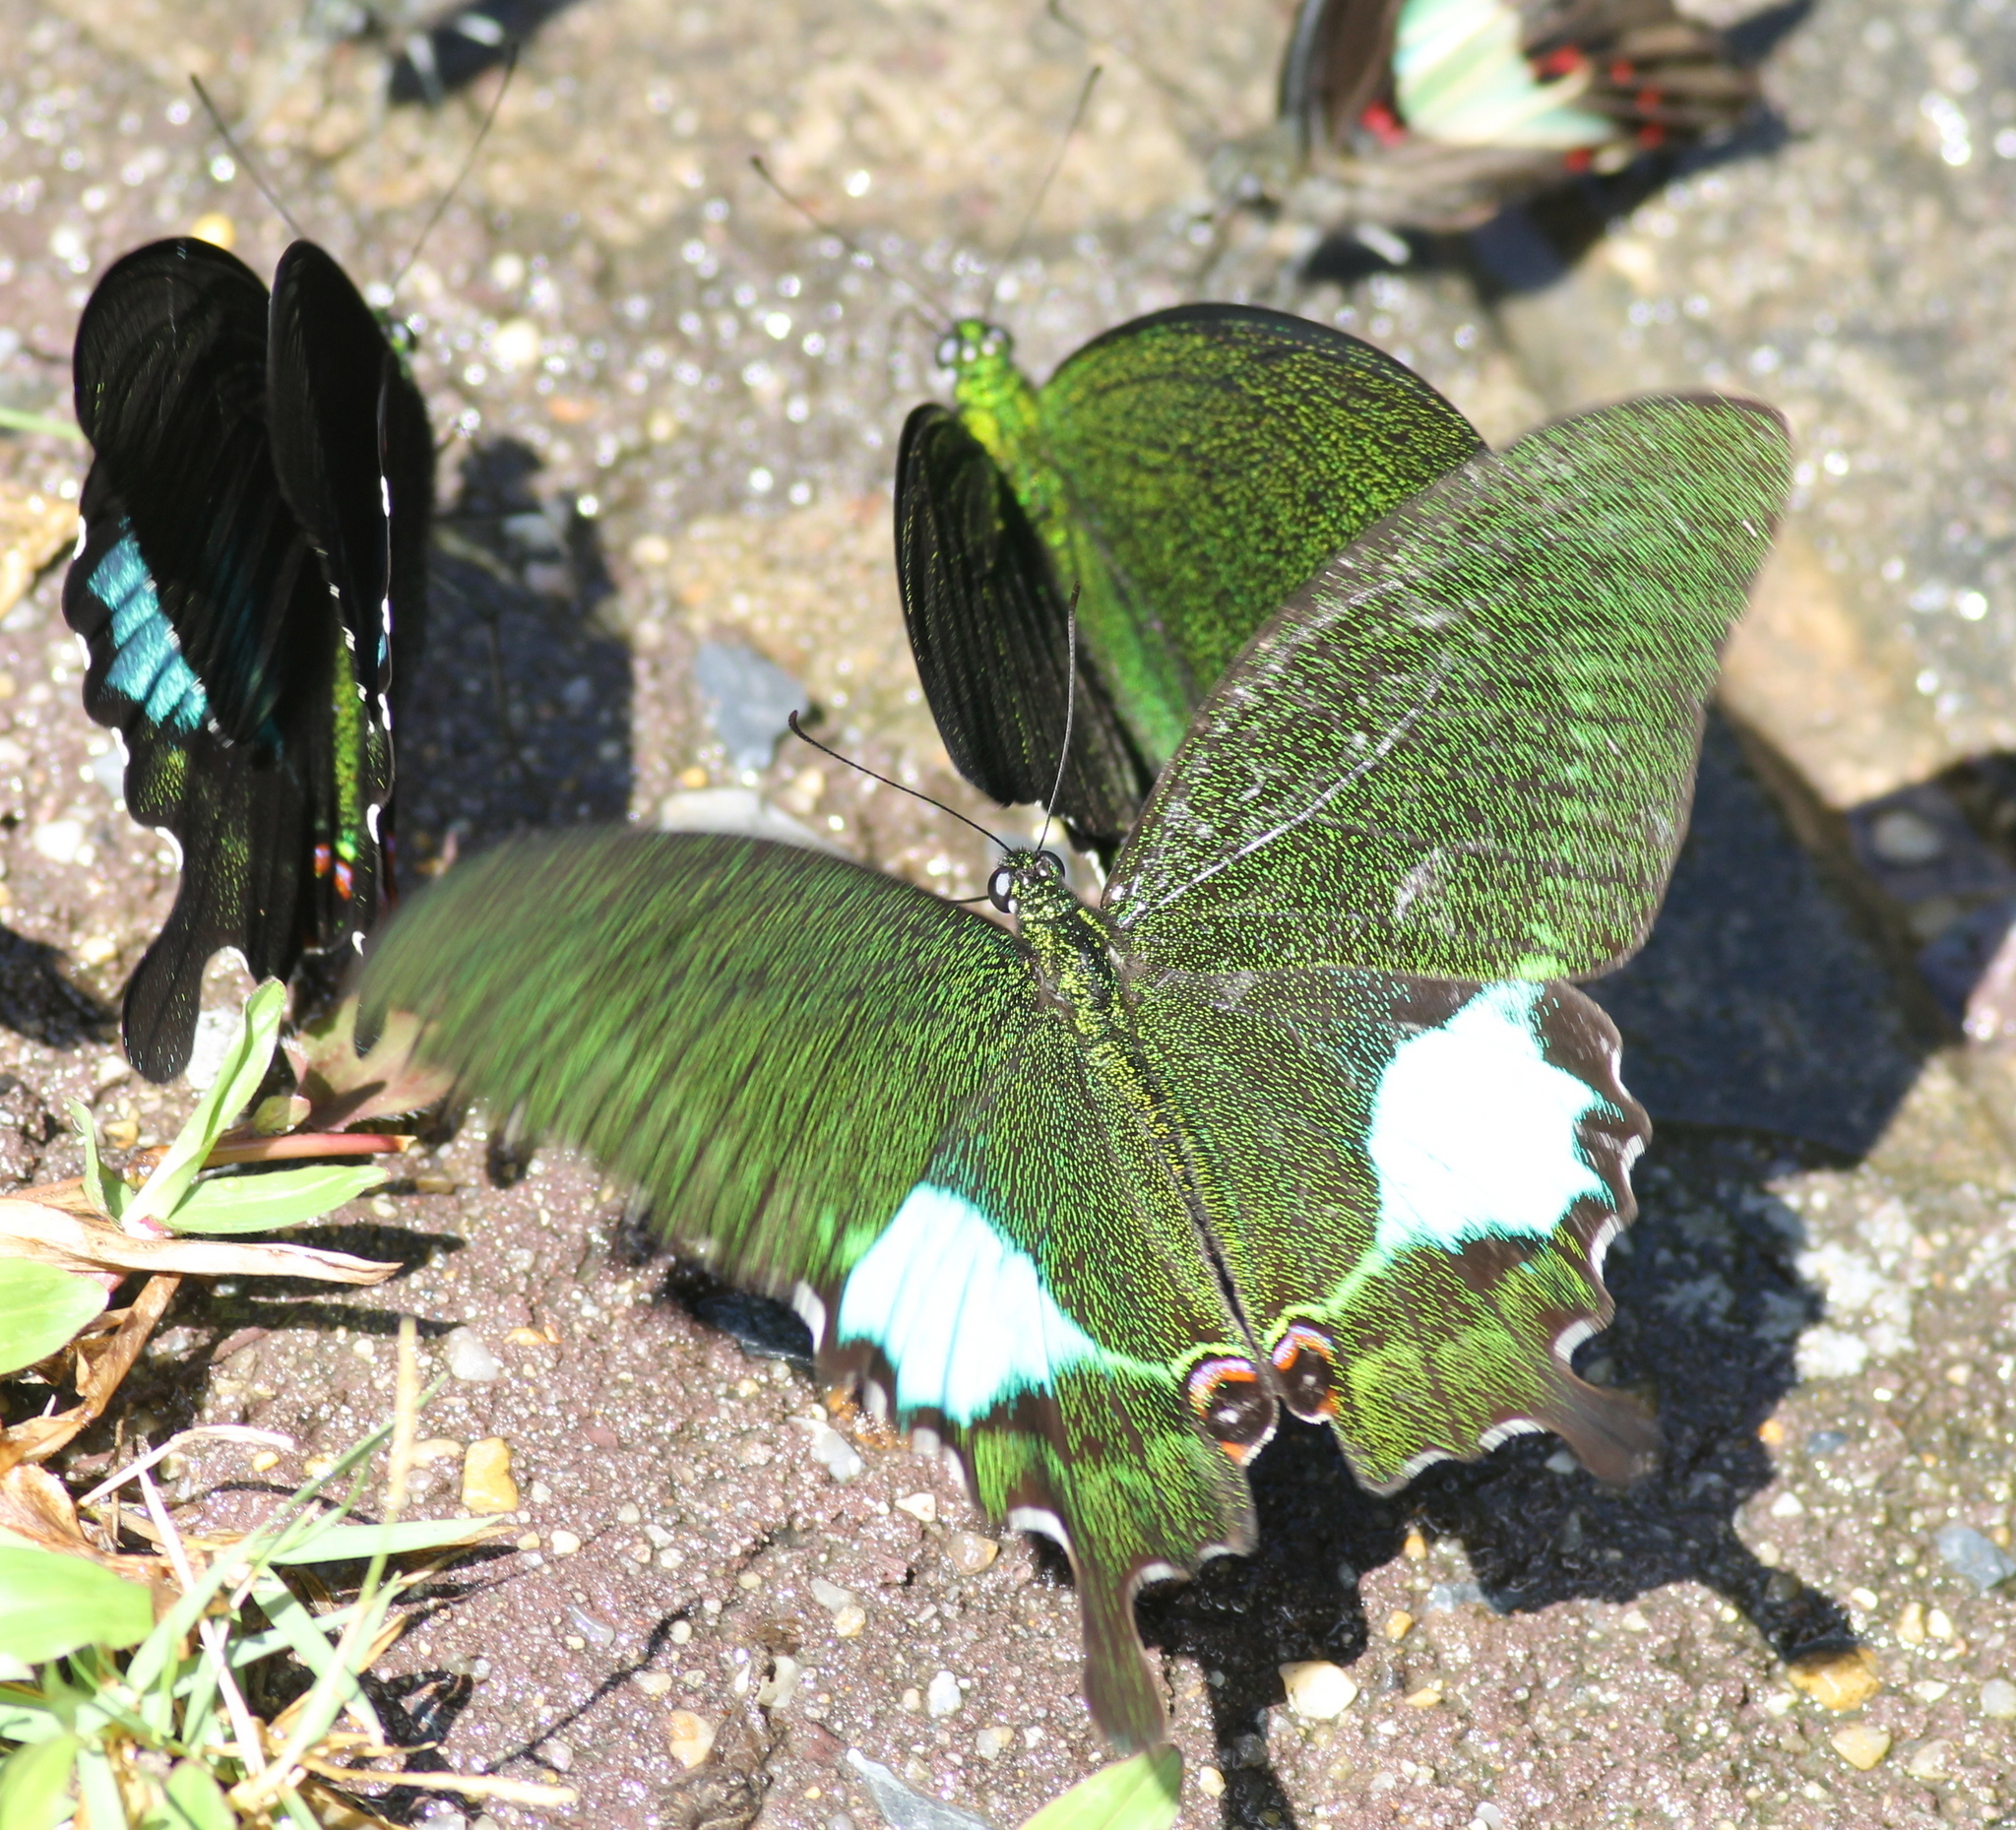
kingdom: Animalia
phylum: Arthropoda
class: Insecta
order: Lepidoptera
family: Papilionidae
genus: Papilio
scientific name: Papilio paris
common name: Paris peacock
